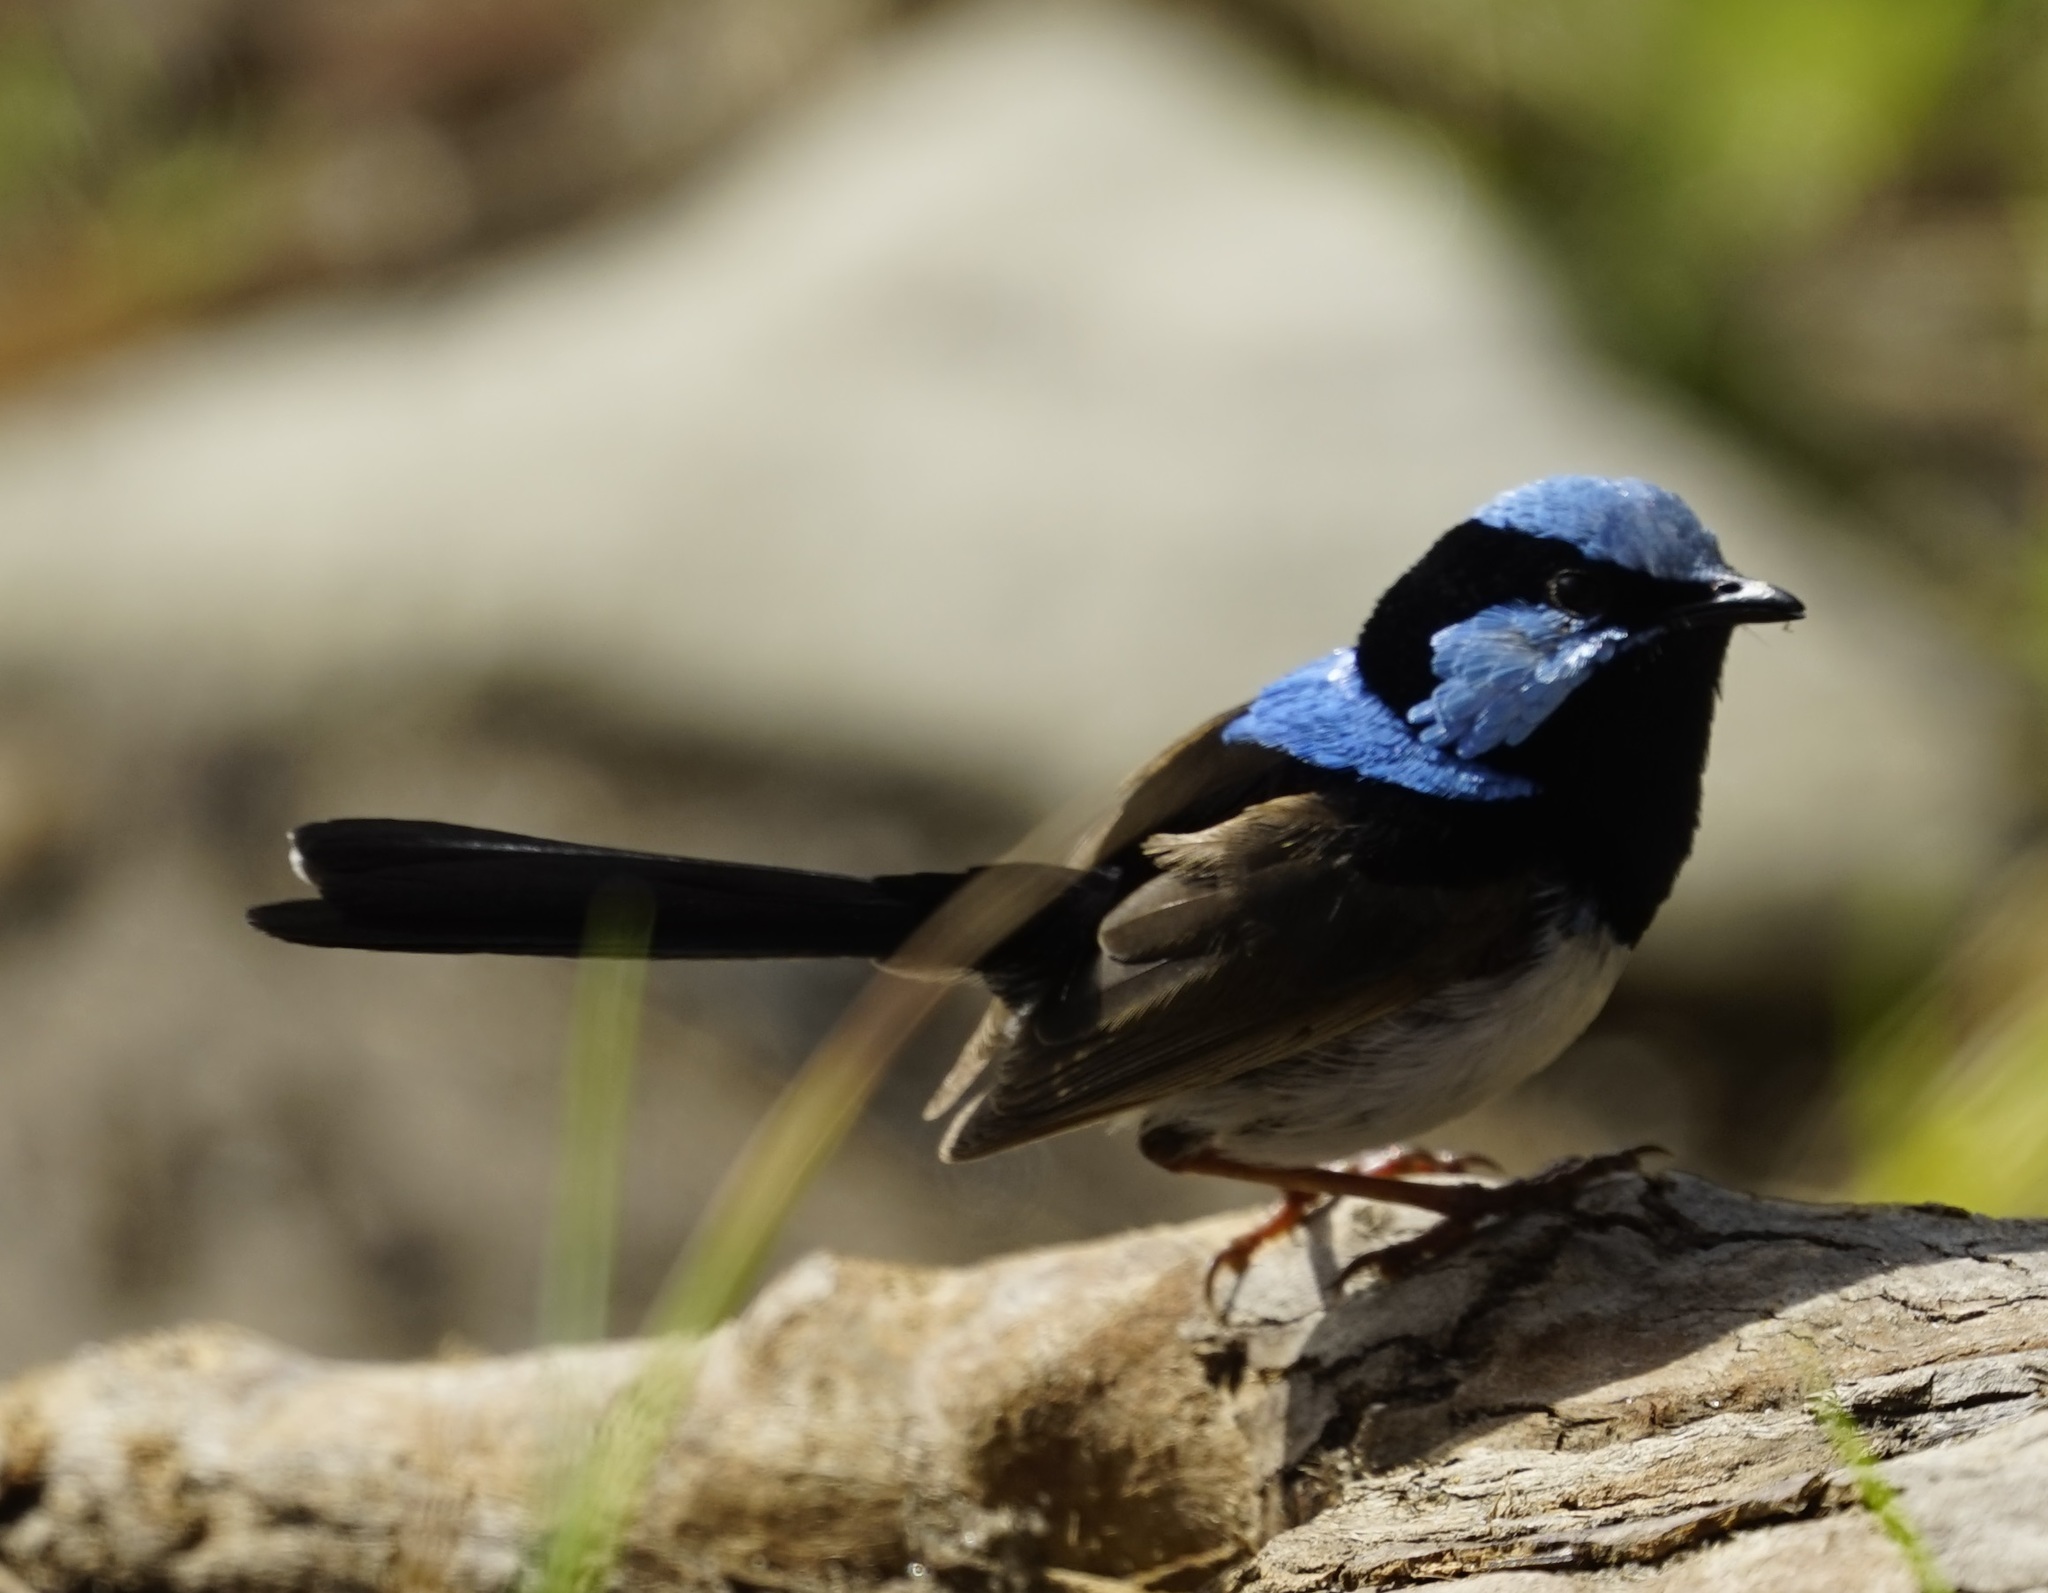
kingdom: Animalia
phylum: Chordata
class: Aves
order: Passeriformes
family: Maluridae
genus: Malurus
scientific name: Malurus cyaneus
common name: Superb fairywren
